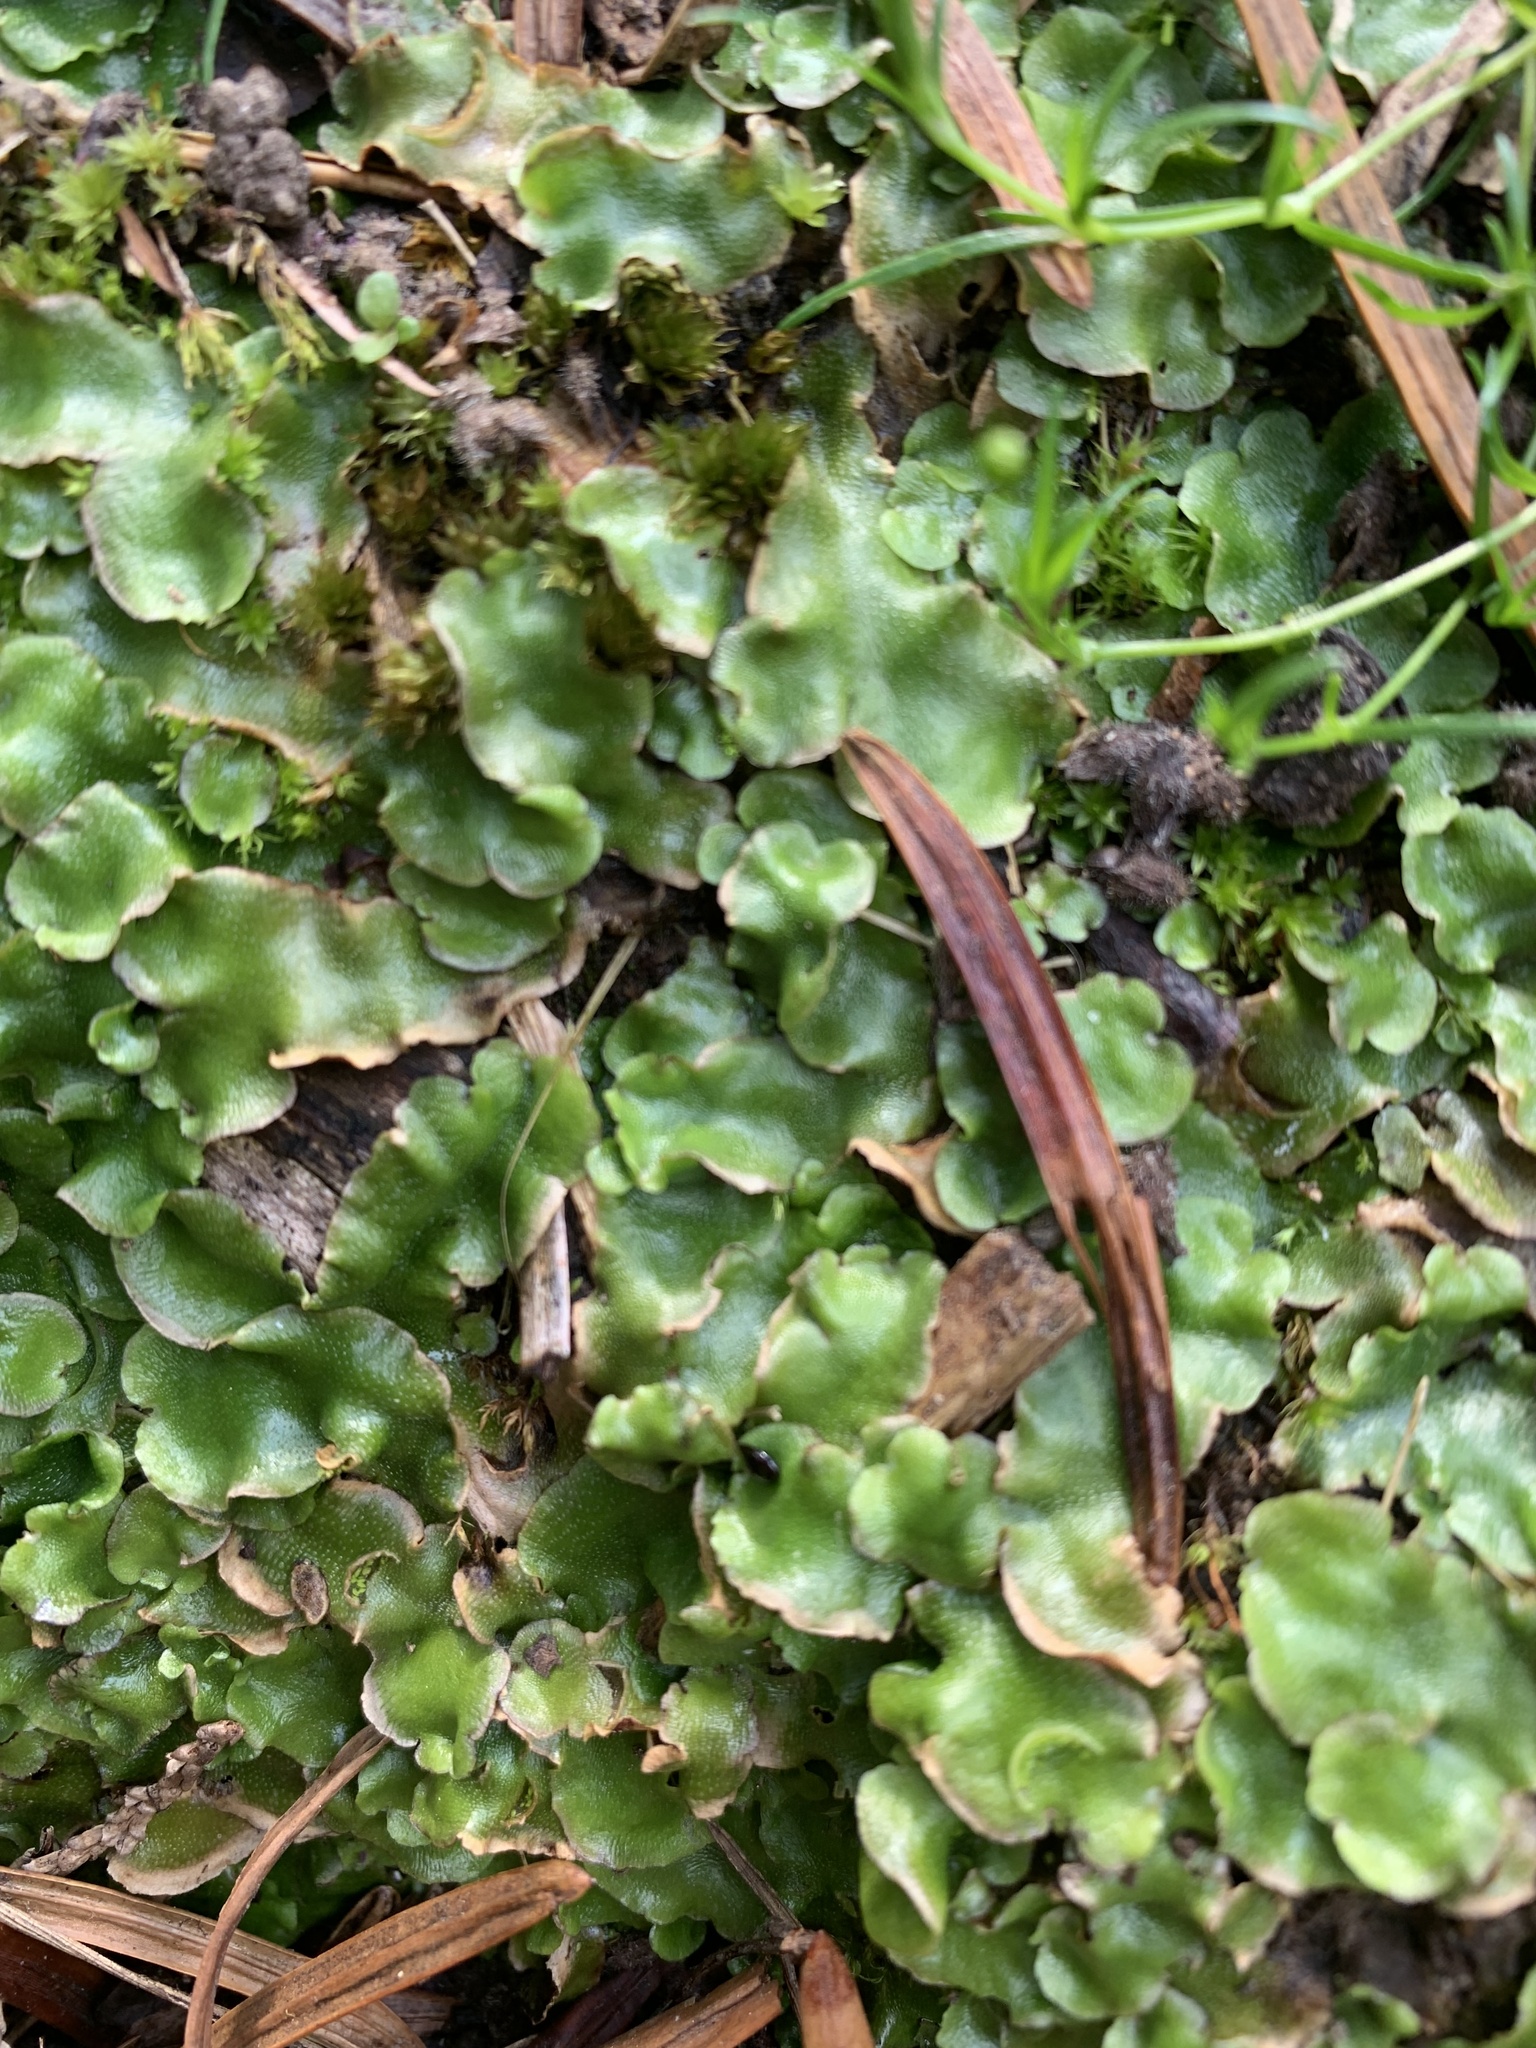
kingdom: Plantae
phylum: Marchantiophyta
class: Marchantiopsida
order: Lunulariales
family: Lunulariaceae
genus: Lunularia
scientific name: Lunularia cruciata
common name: Crescent-cup liverwort
